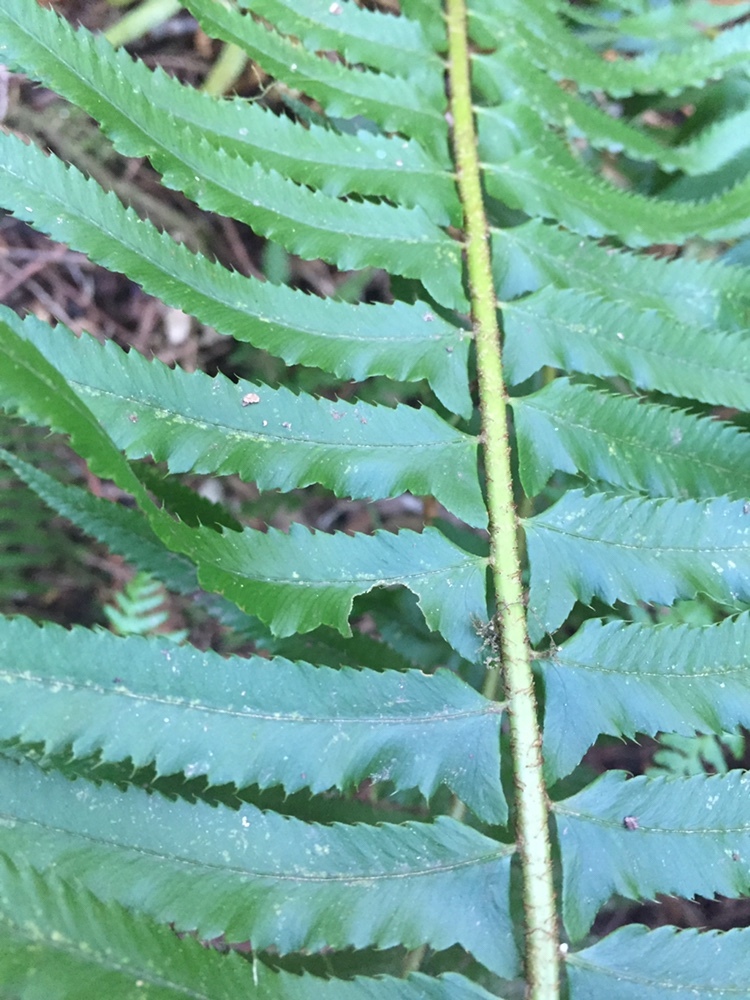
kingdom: Plantae
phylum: Tracheophyta
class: Polypodiopsida
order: Polypodiales
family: Dryopteridaceae
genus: Polystichum
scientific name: Polystichum munitum
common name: Western sword-fern
